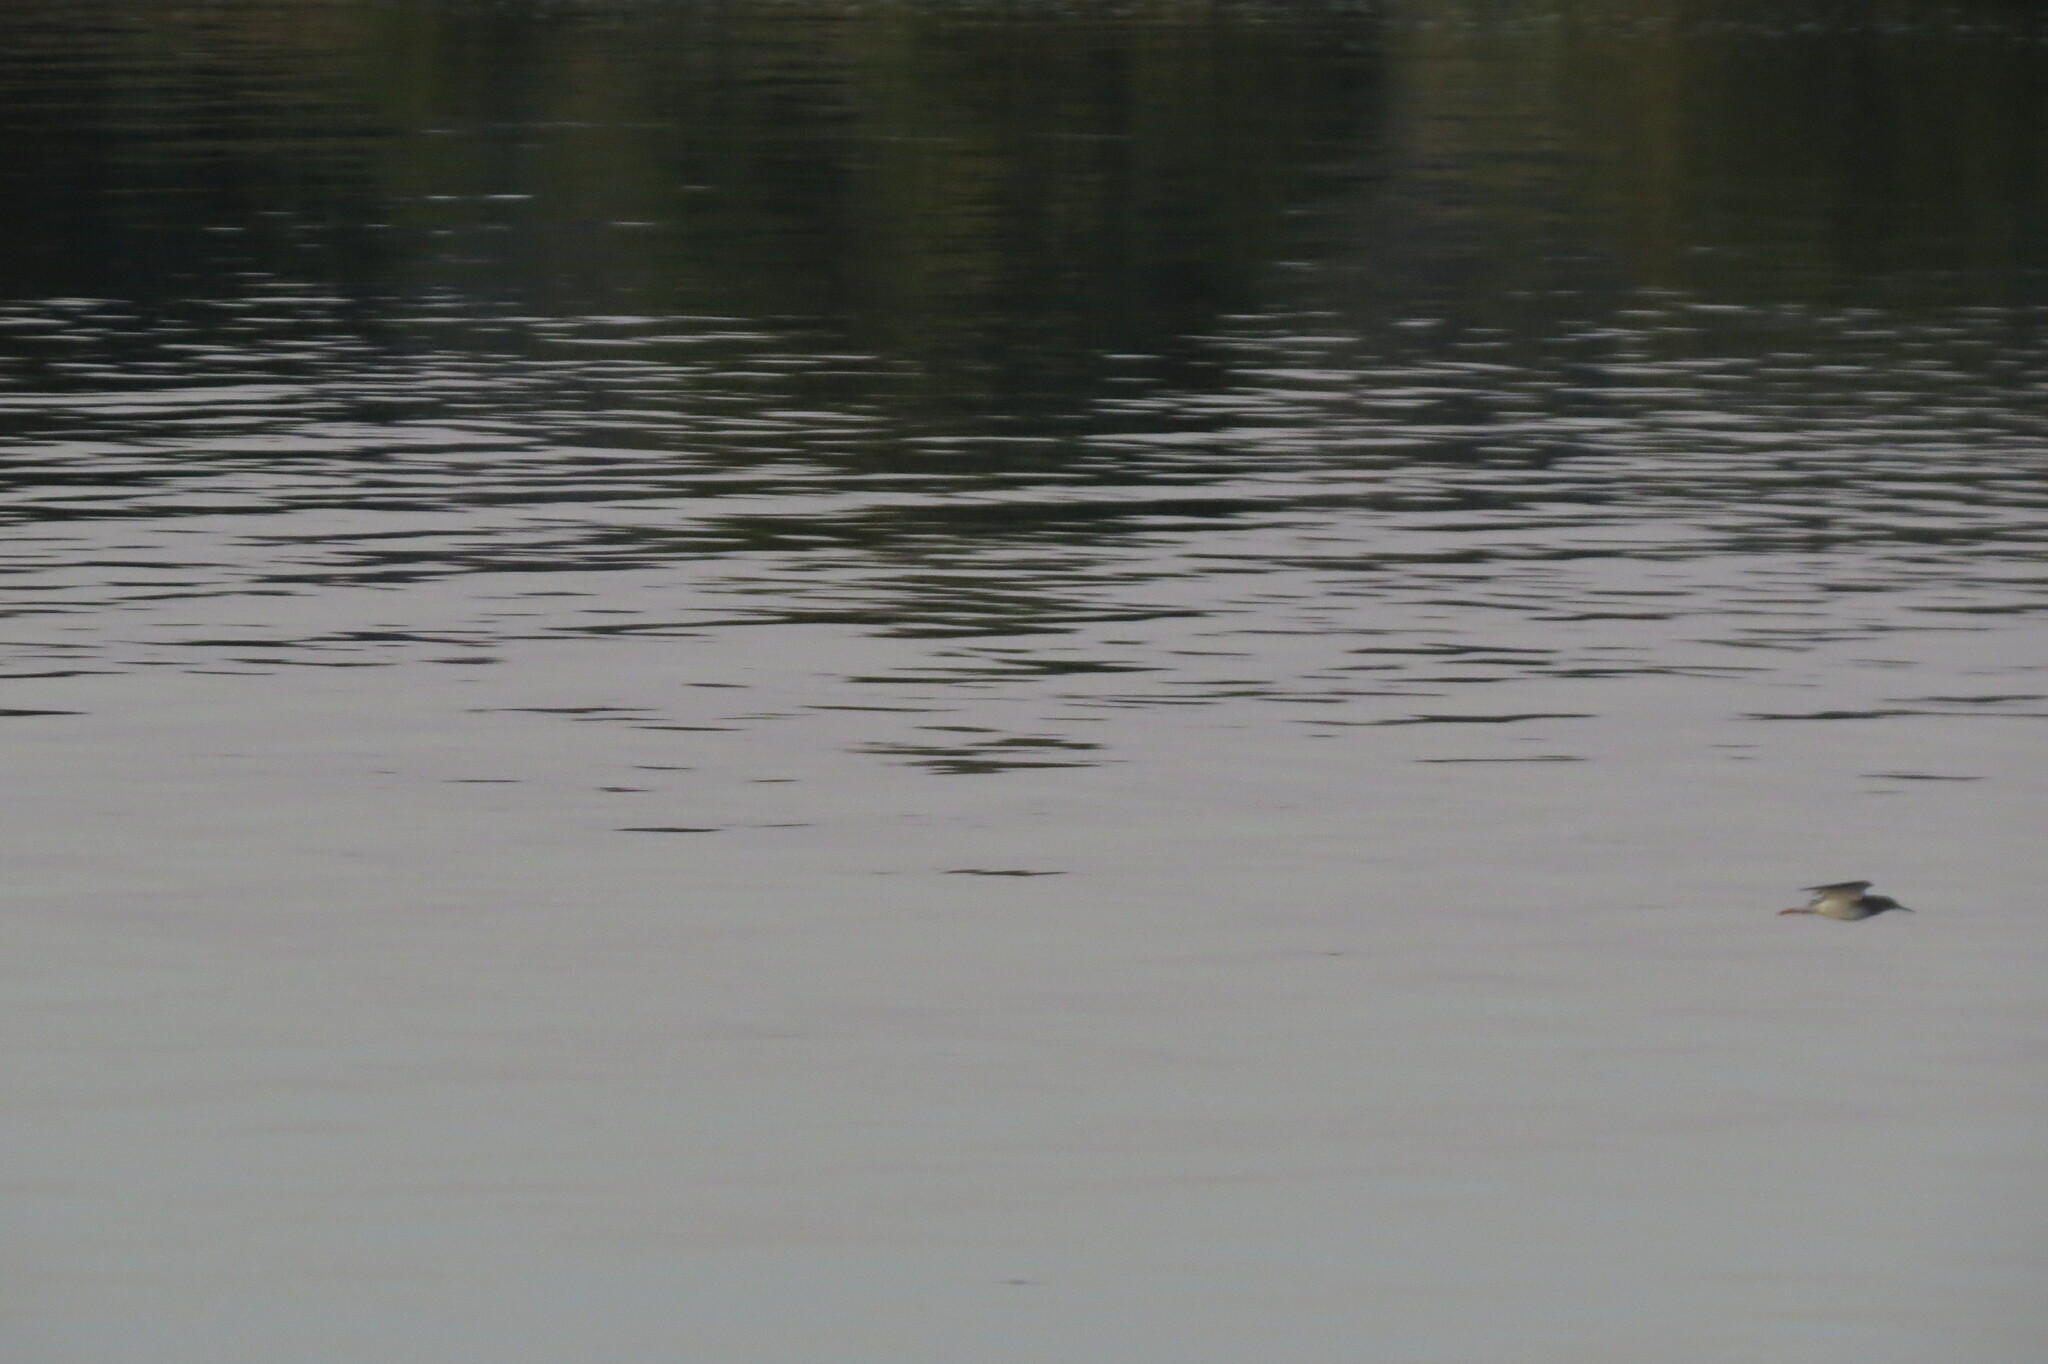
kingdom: Animalia
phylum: Chordata
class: Aves
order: Charadriiformes
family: Scolopacidae
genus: Tringa
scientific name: Tringa ochropus
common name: Green sandpiper
